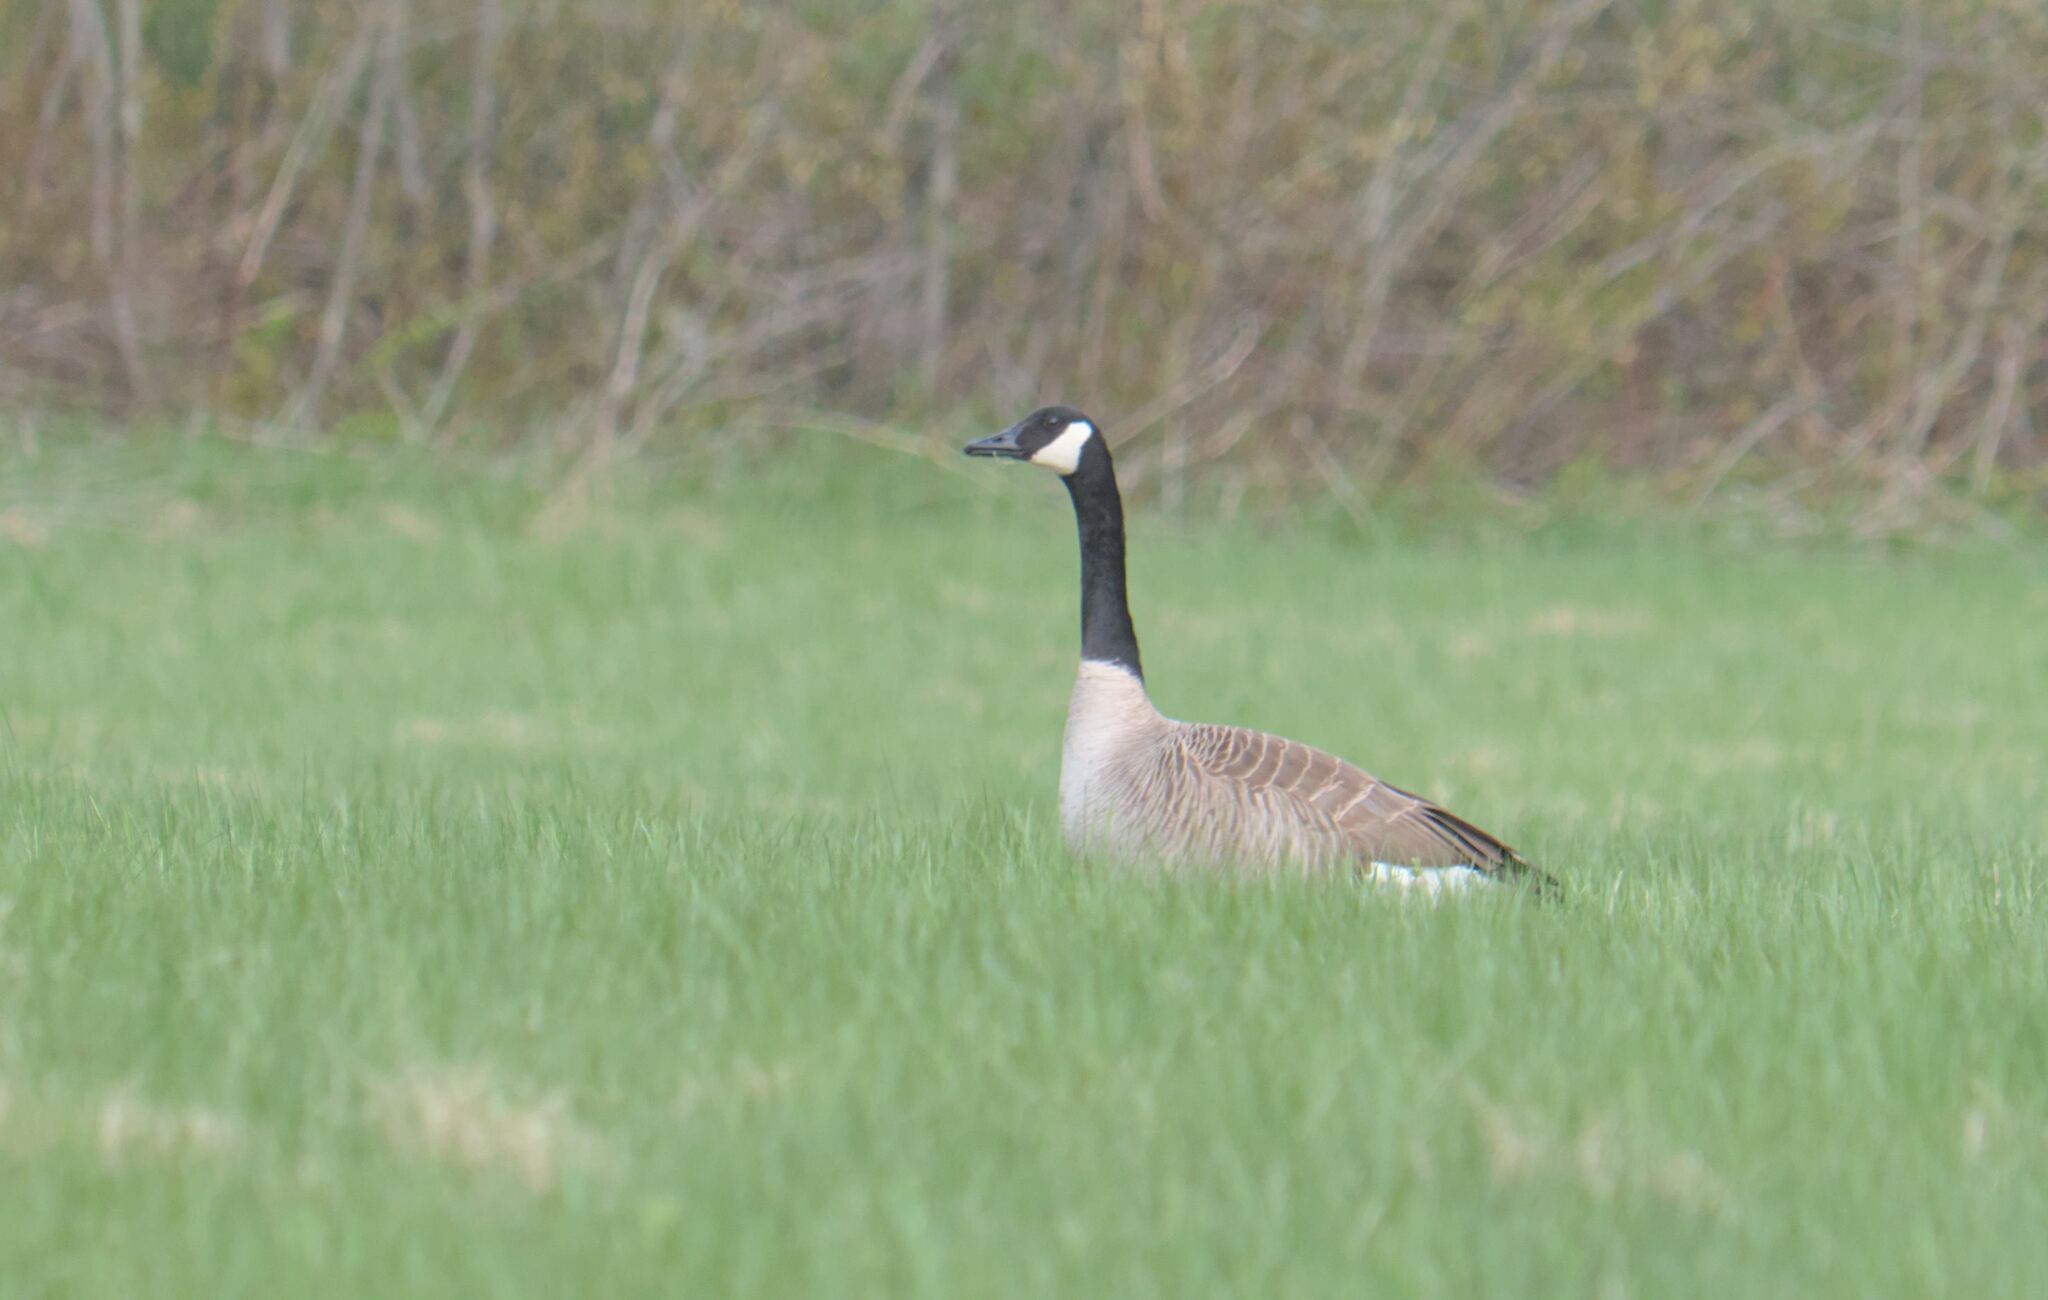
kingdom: Animalia
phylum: Chordata
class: Aves
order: Anseriformes
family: Anatidae
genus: Branta
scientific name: Branta canadensis
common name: Canada goose
